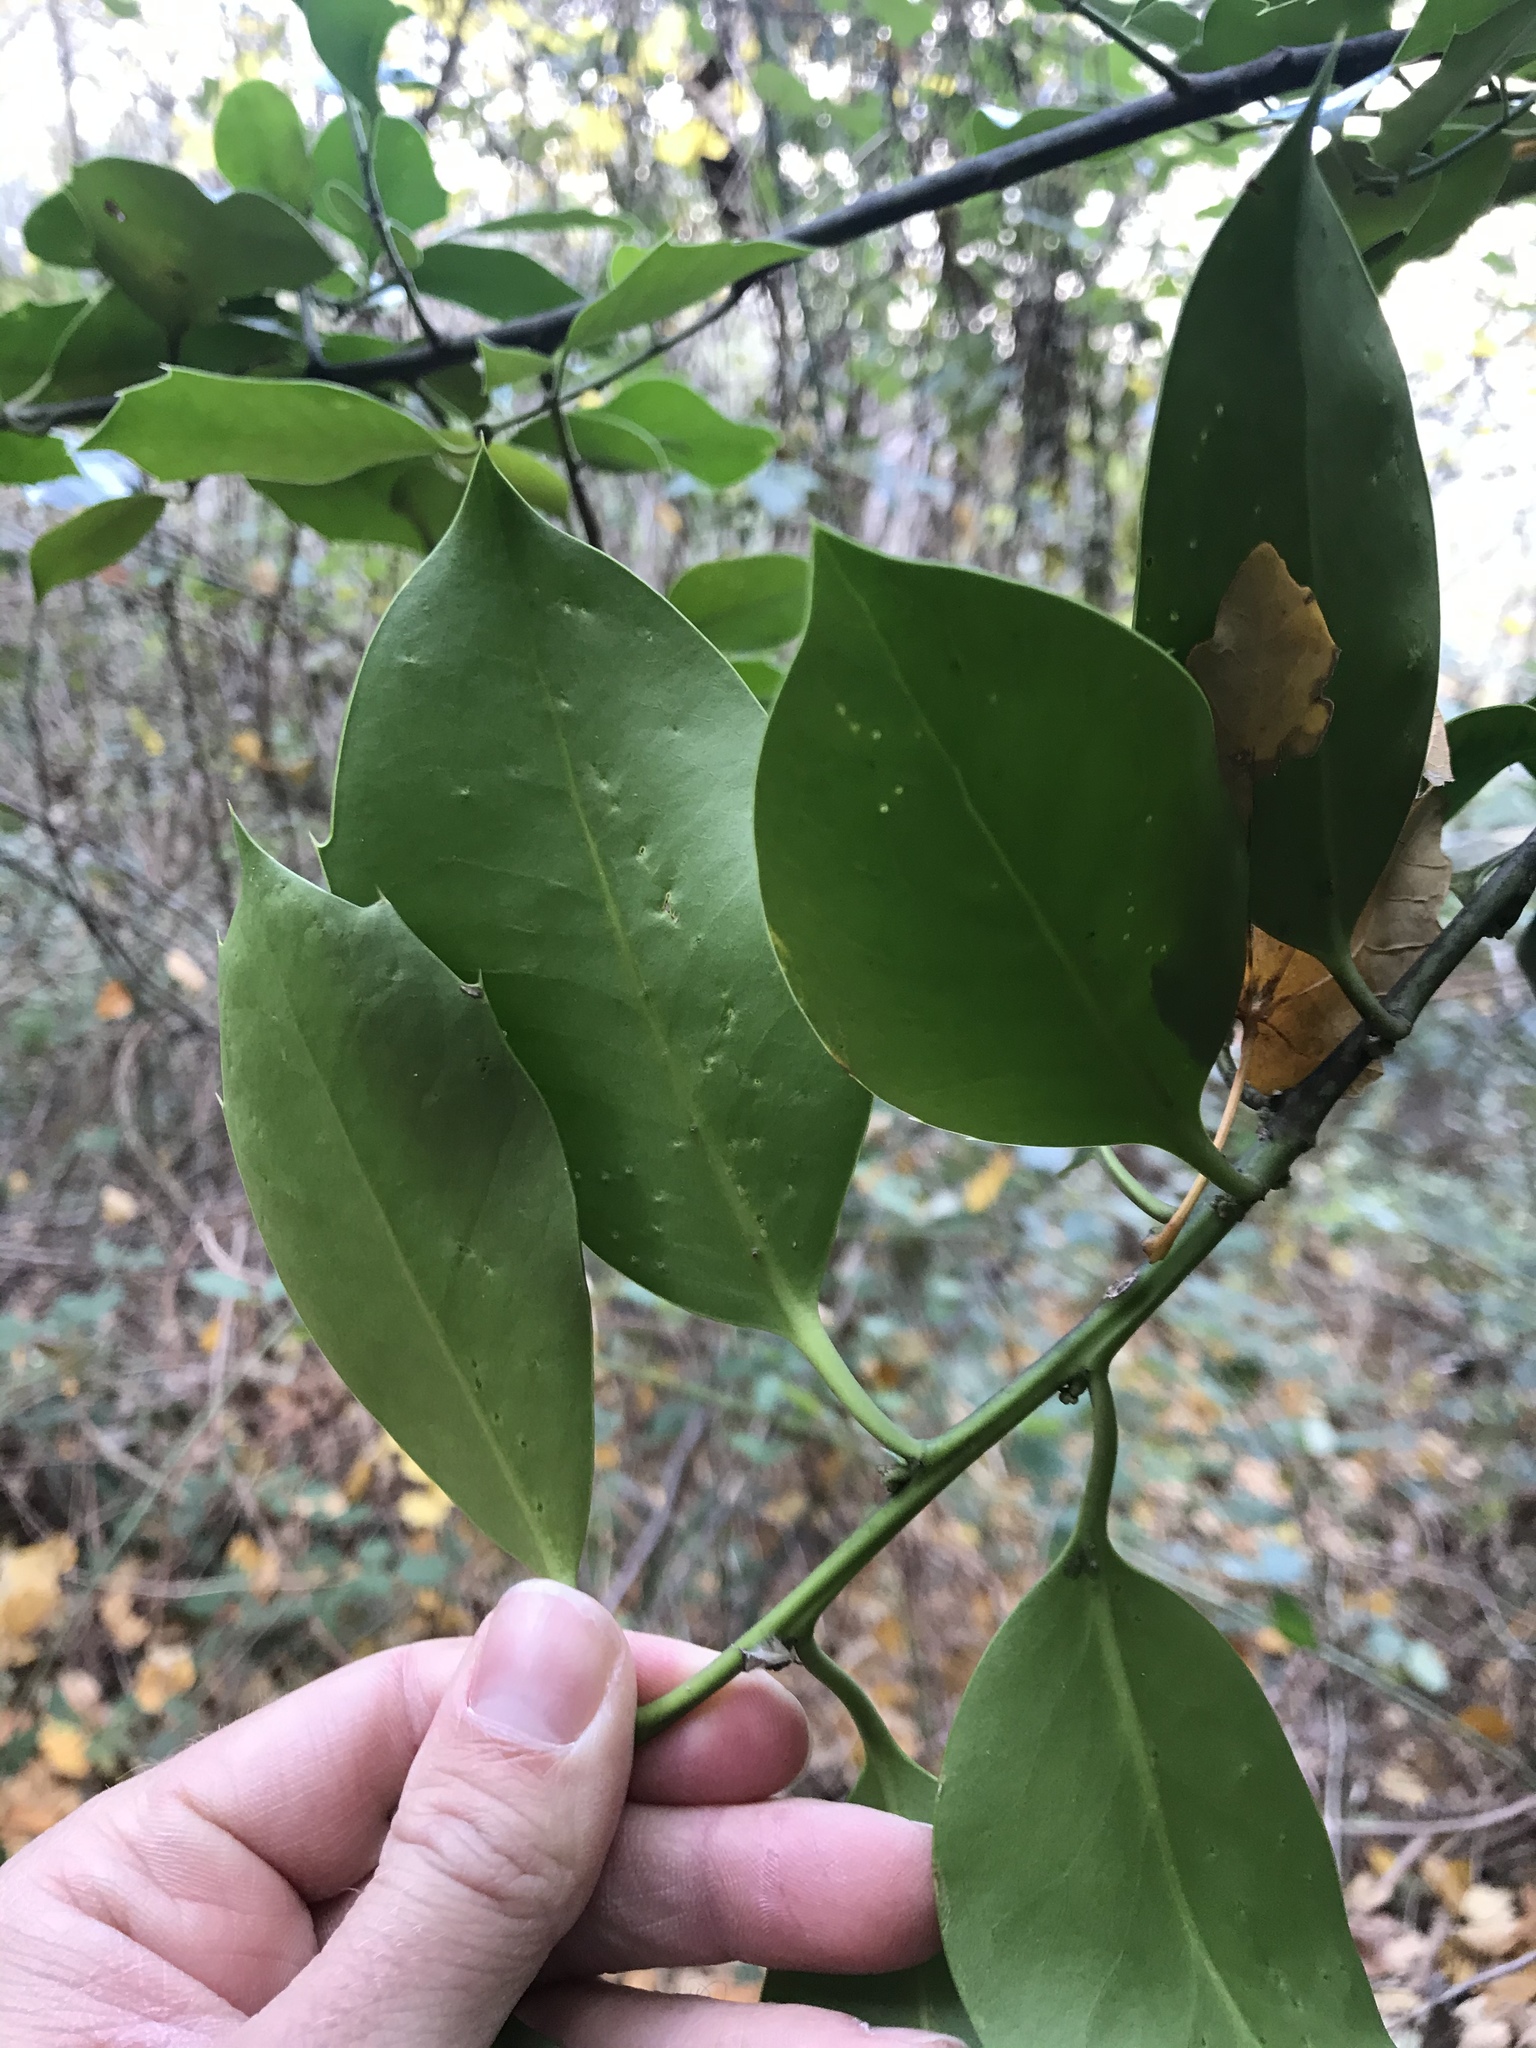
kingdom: Plantae
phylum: Tracheophyta
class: Magnoliopsida
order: Aquifoliales
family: Aquifoliaceae
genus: Ilex
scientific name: Ilex aquifolium
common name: English holly
